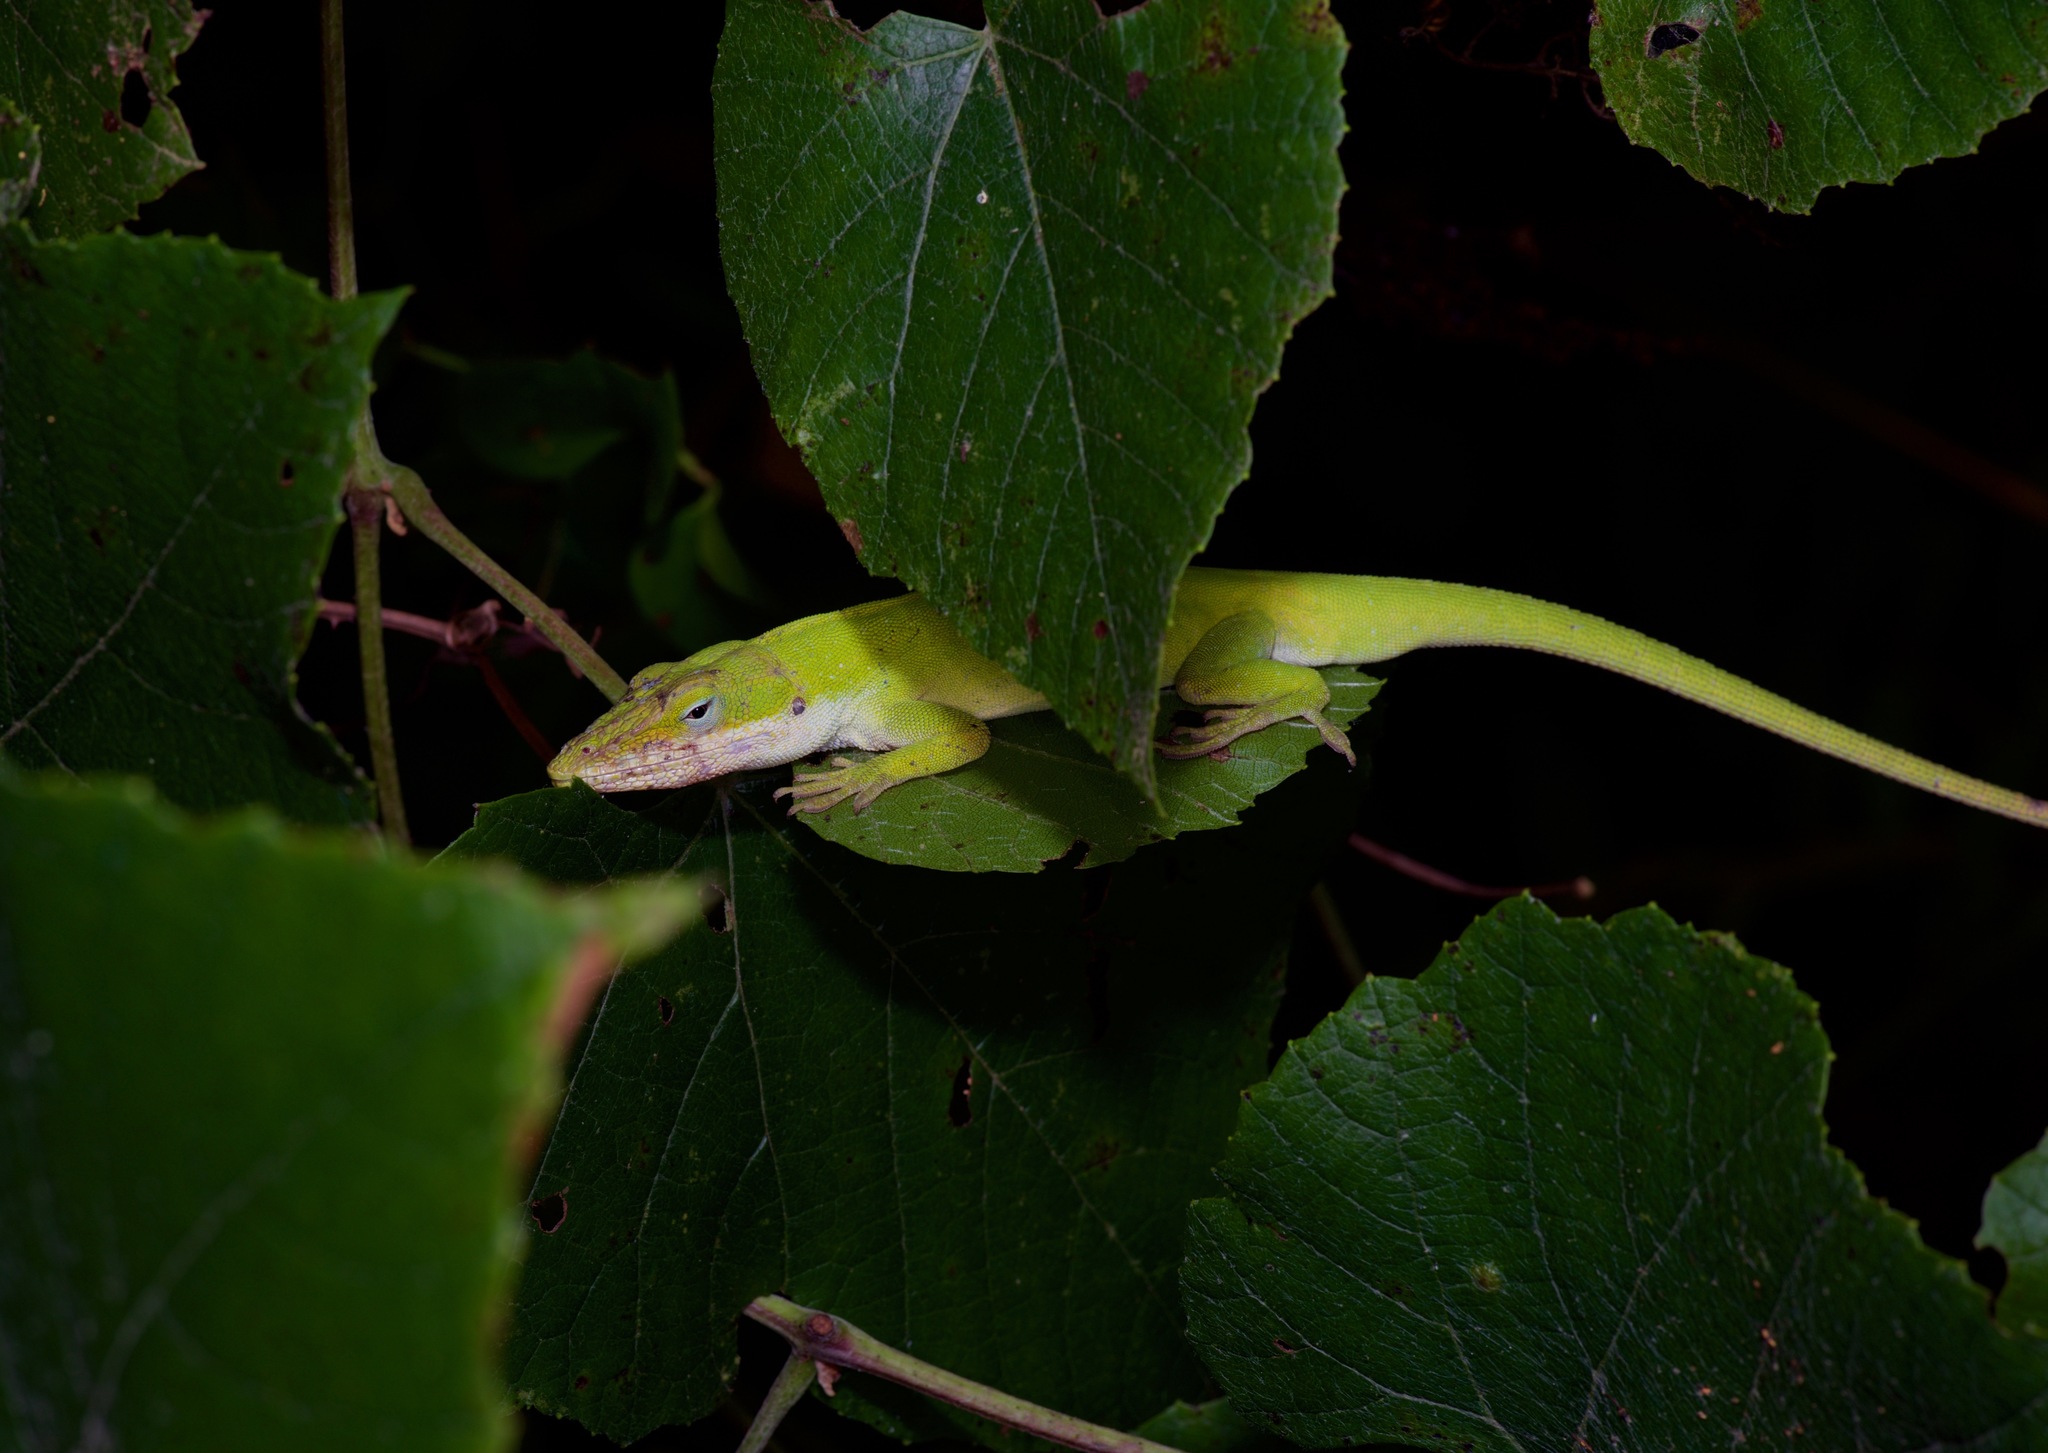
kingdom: Animalia
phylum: Chordata
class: Squamata
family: Dactyloidae
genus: Anolis
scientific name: Anolis carolinensis
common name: Green anole
